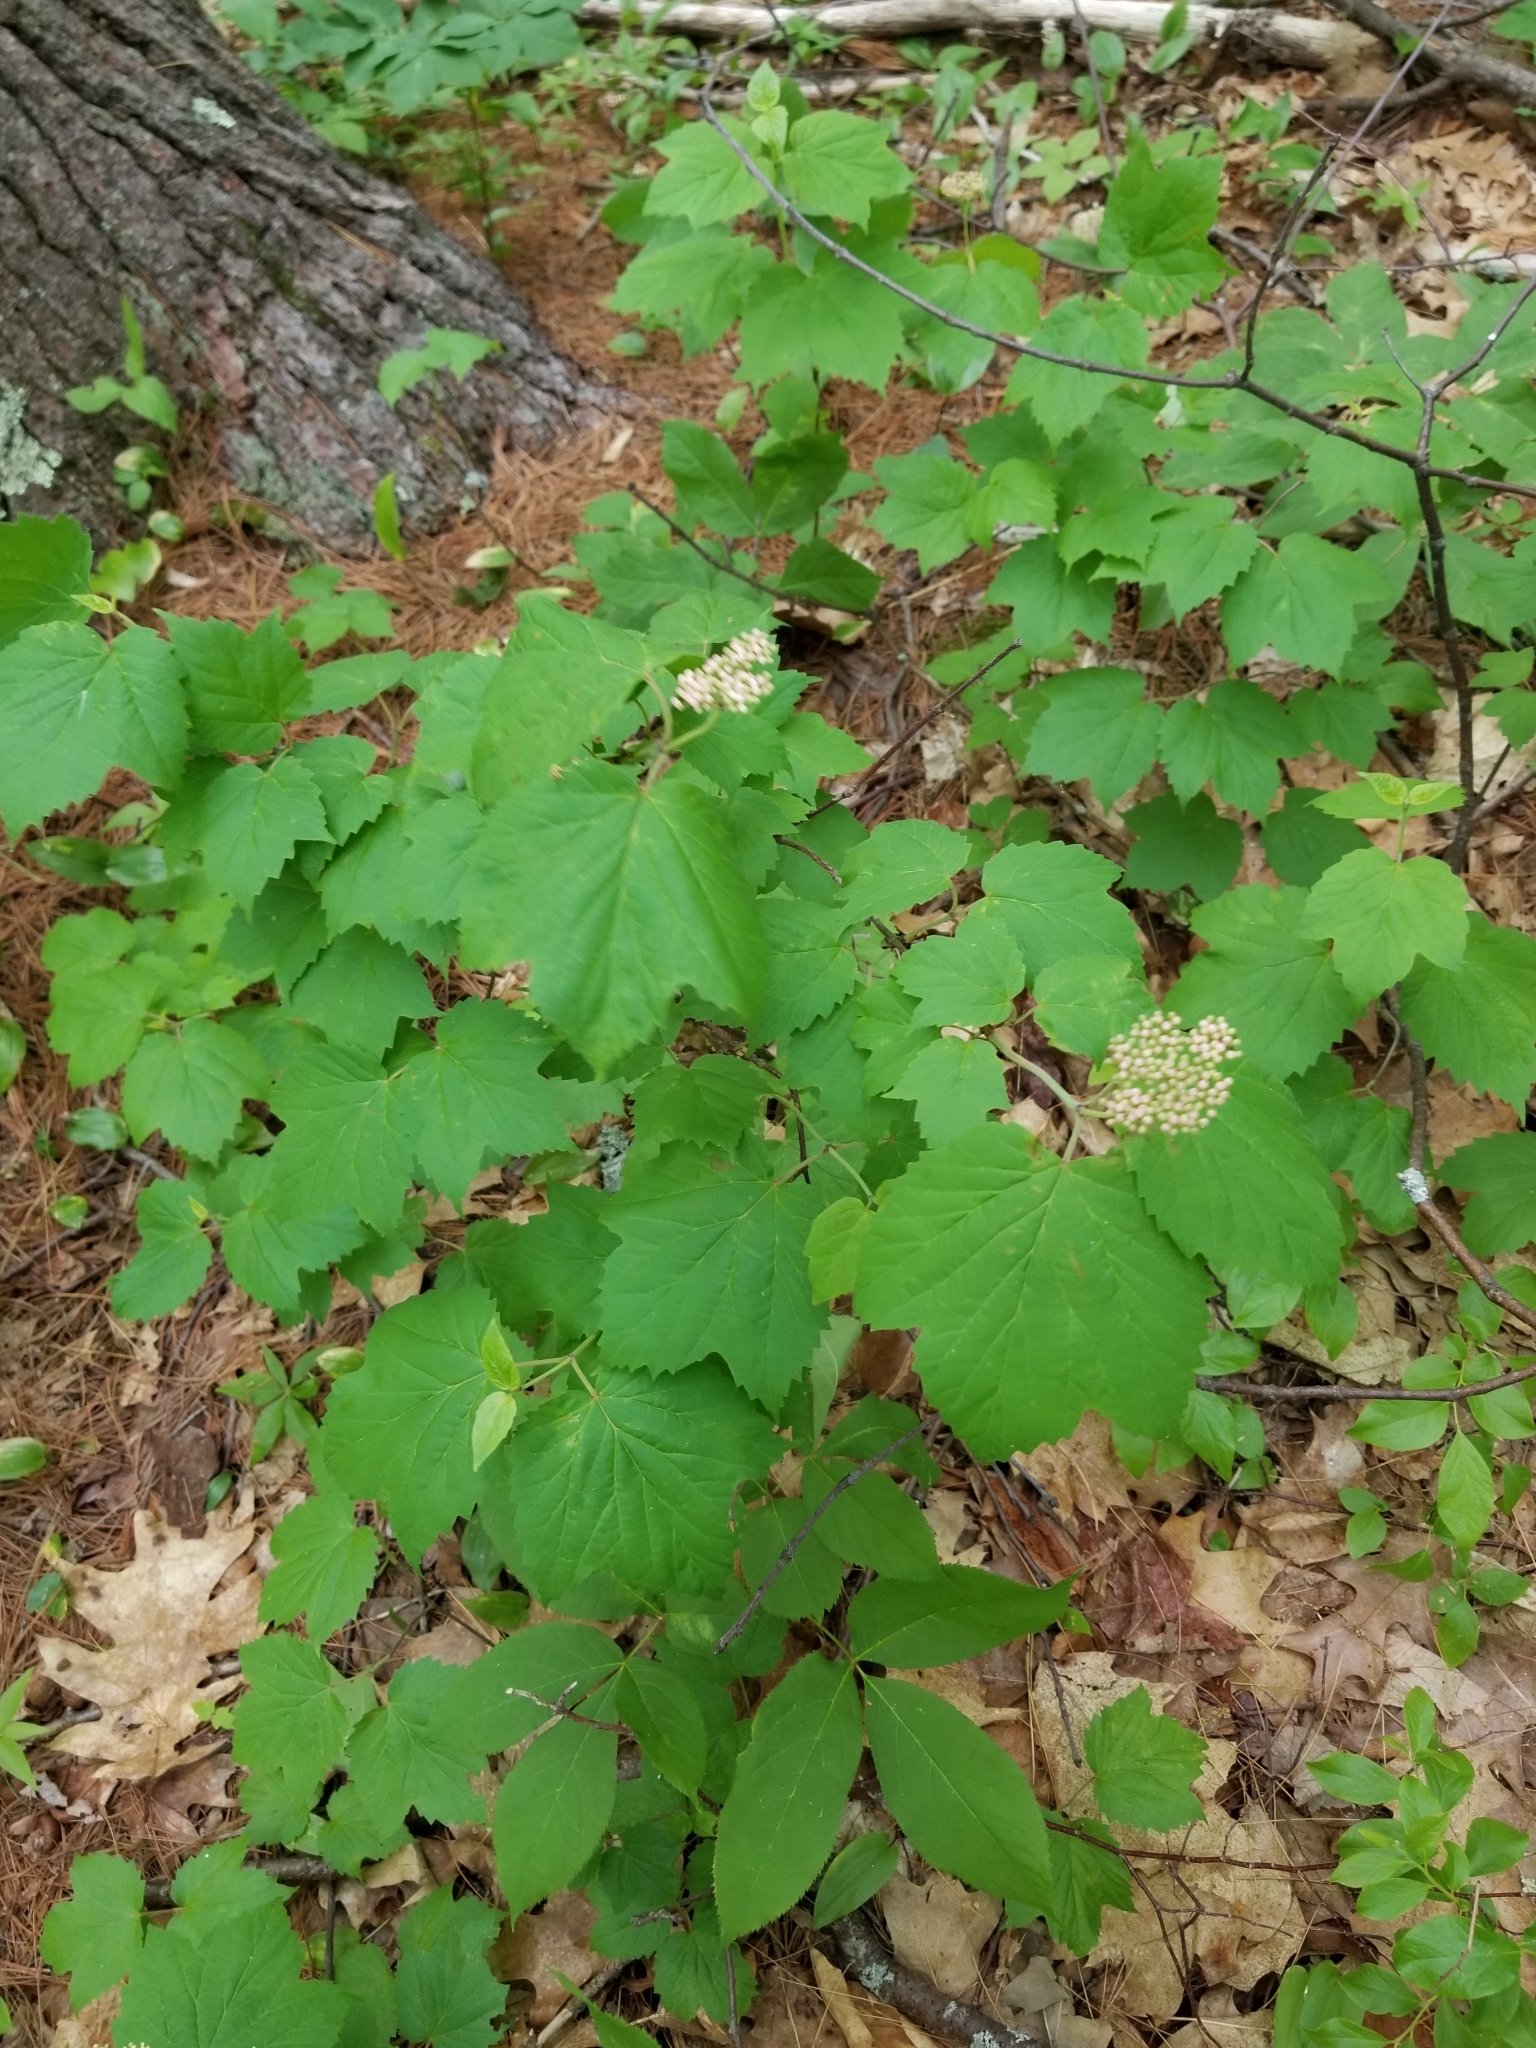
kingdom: Plantae
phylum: Tracheophyta
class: Magnoliopsida
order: Dipsacales
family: Viburnaceae
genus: Viburnum
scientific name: Viburnum acerifolium
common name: Dockmackie
